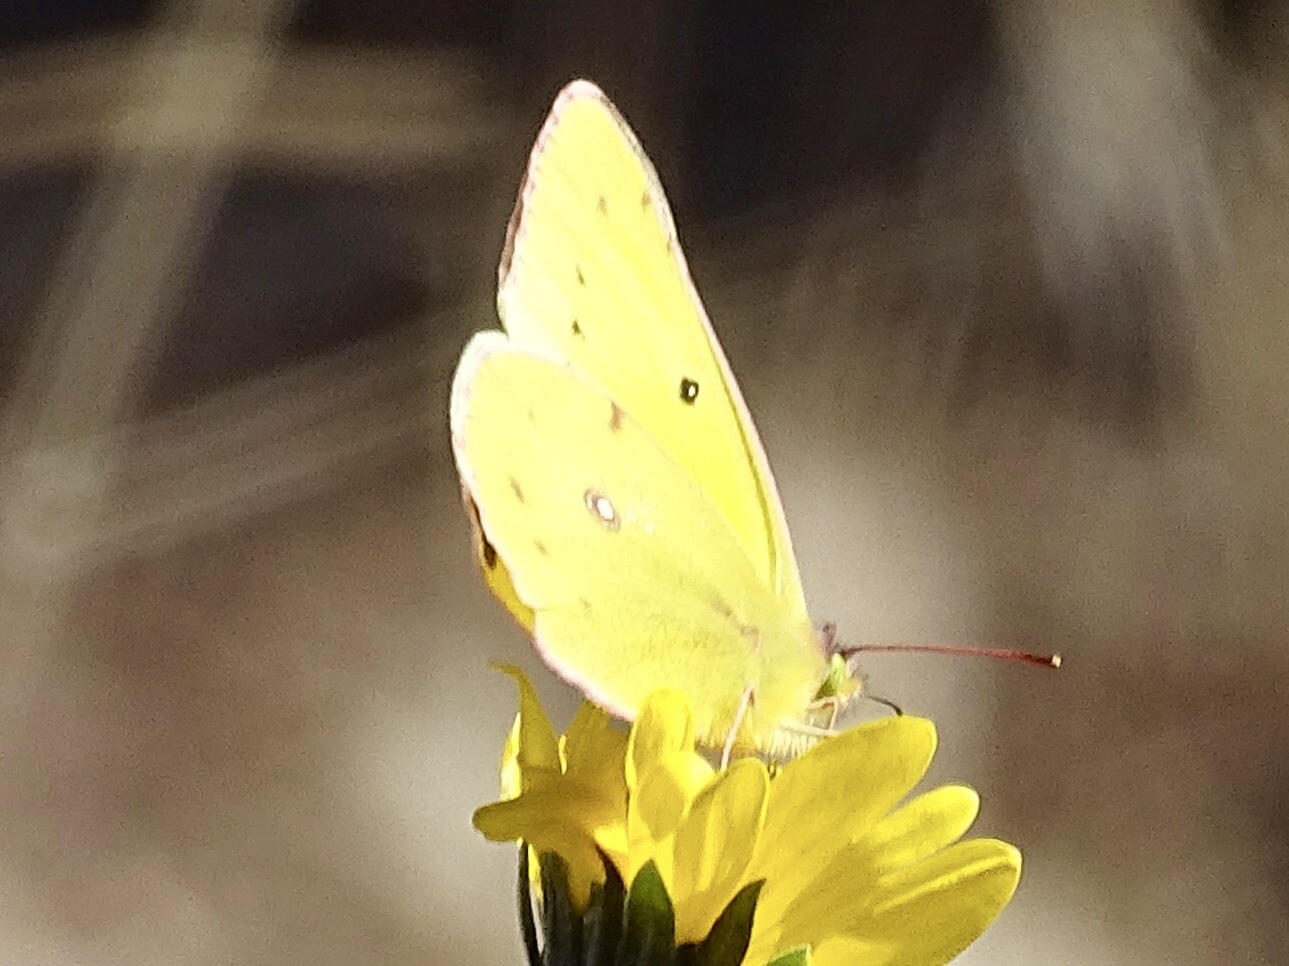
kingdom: Animalia
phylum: Arthropoda
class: Insecta
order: Lepidoptera
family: Pieridae
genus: Colias
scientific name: Colias eurytheme
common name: Alfalfa butterfly
